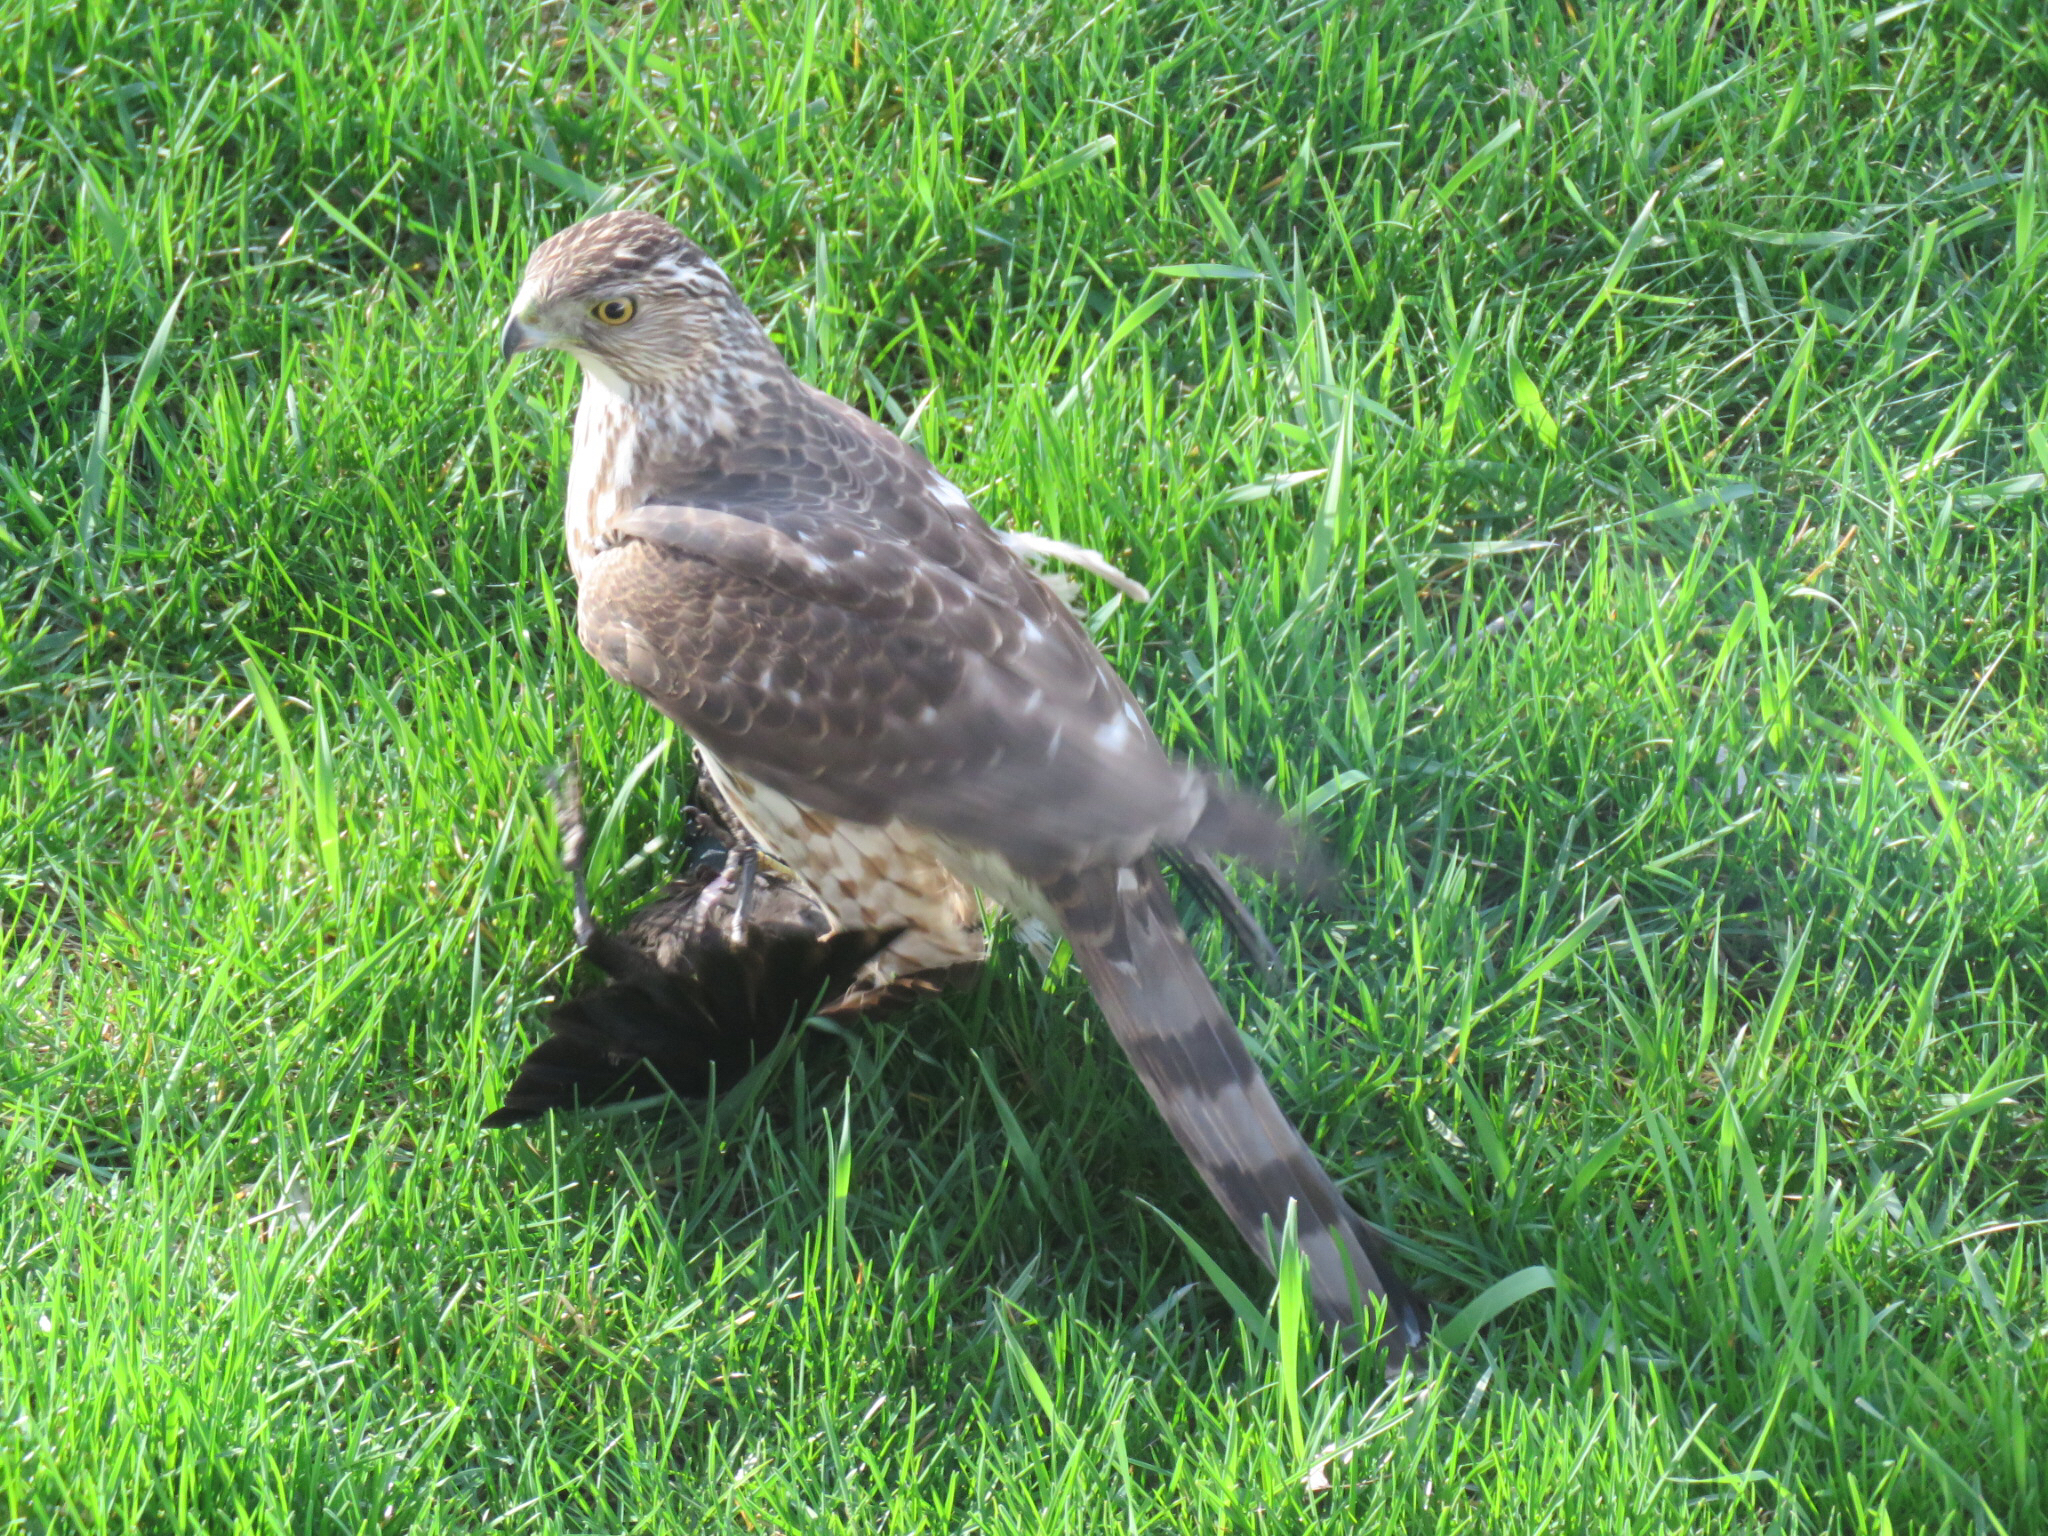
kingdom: Animalia
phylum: Chordata
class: Aves
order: Accipitriformes
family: Accipitridae
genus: Accipiter
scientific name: Accipiter cooperii
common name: Cooper's hawk
